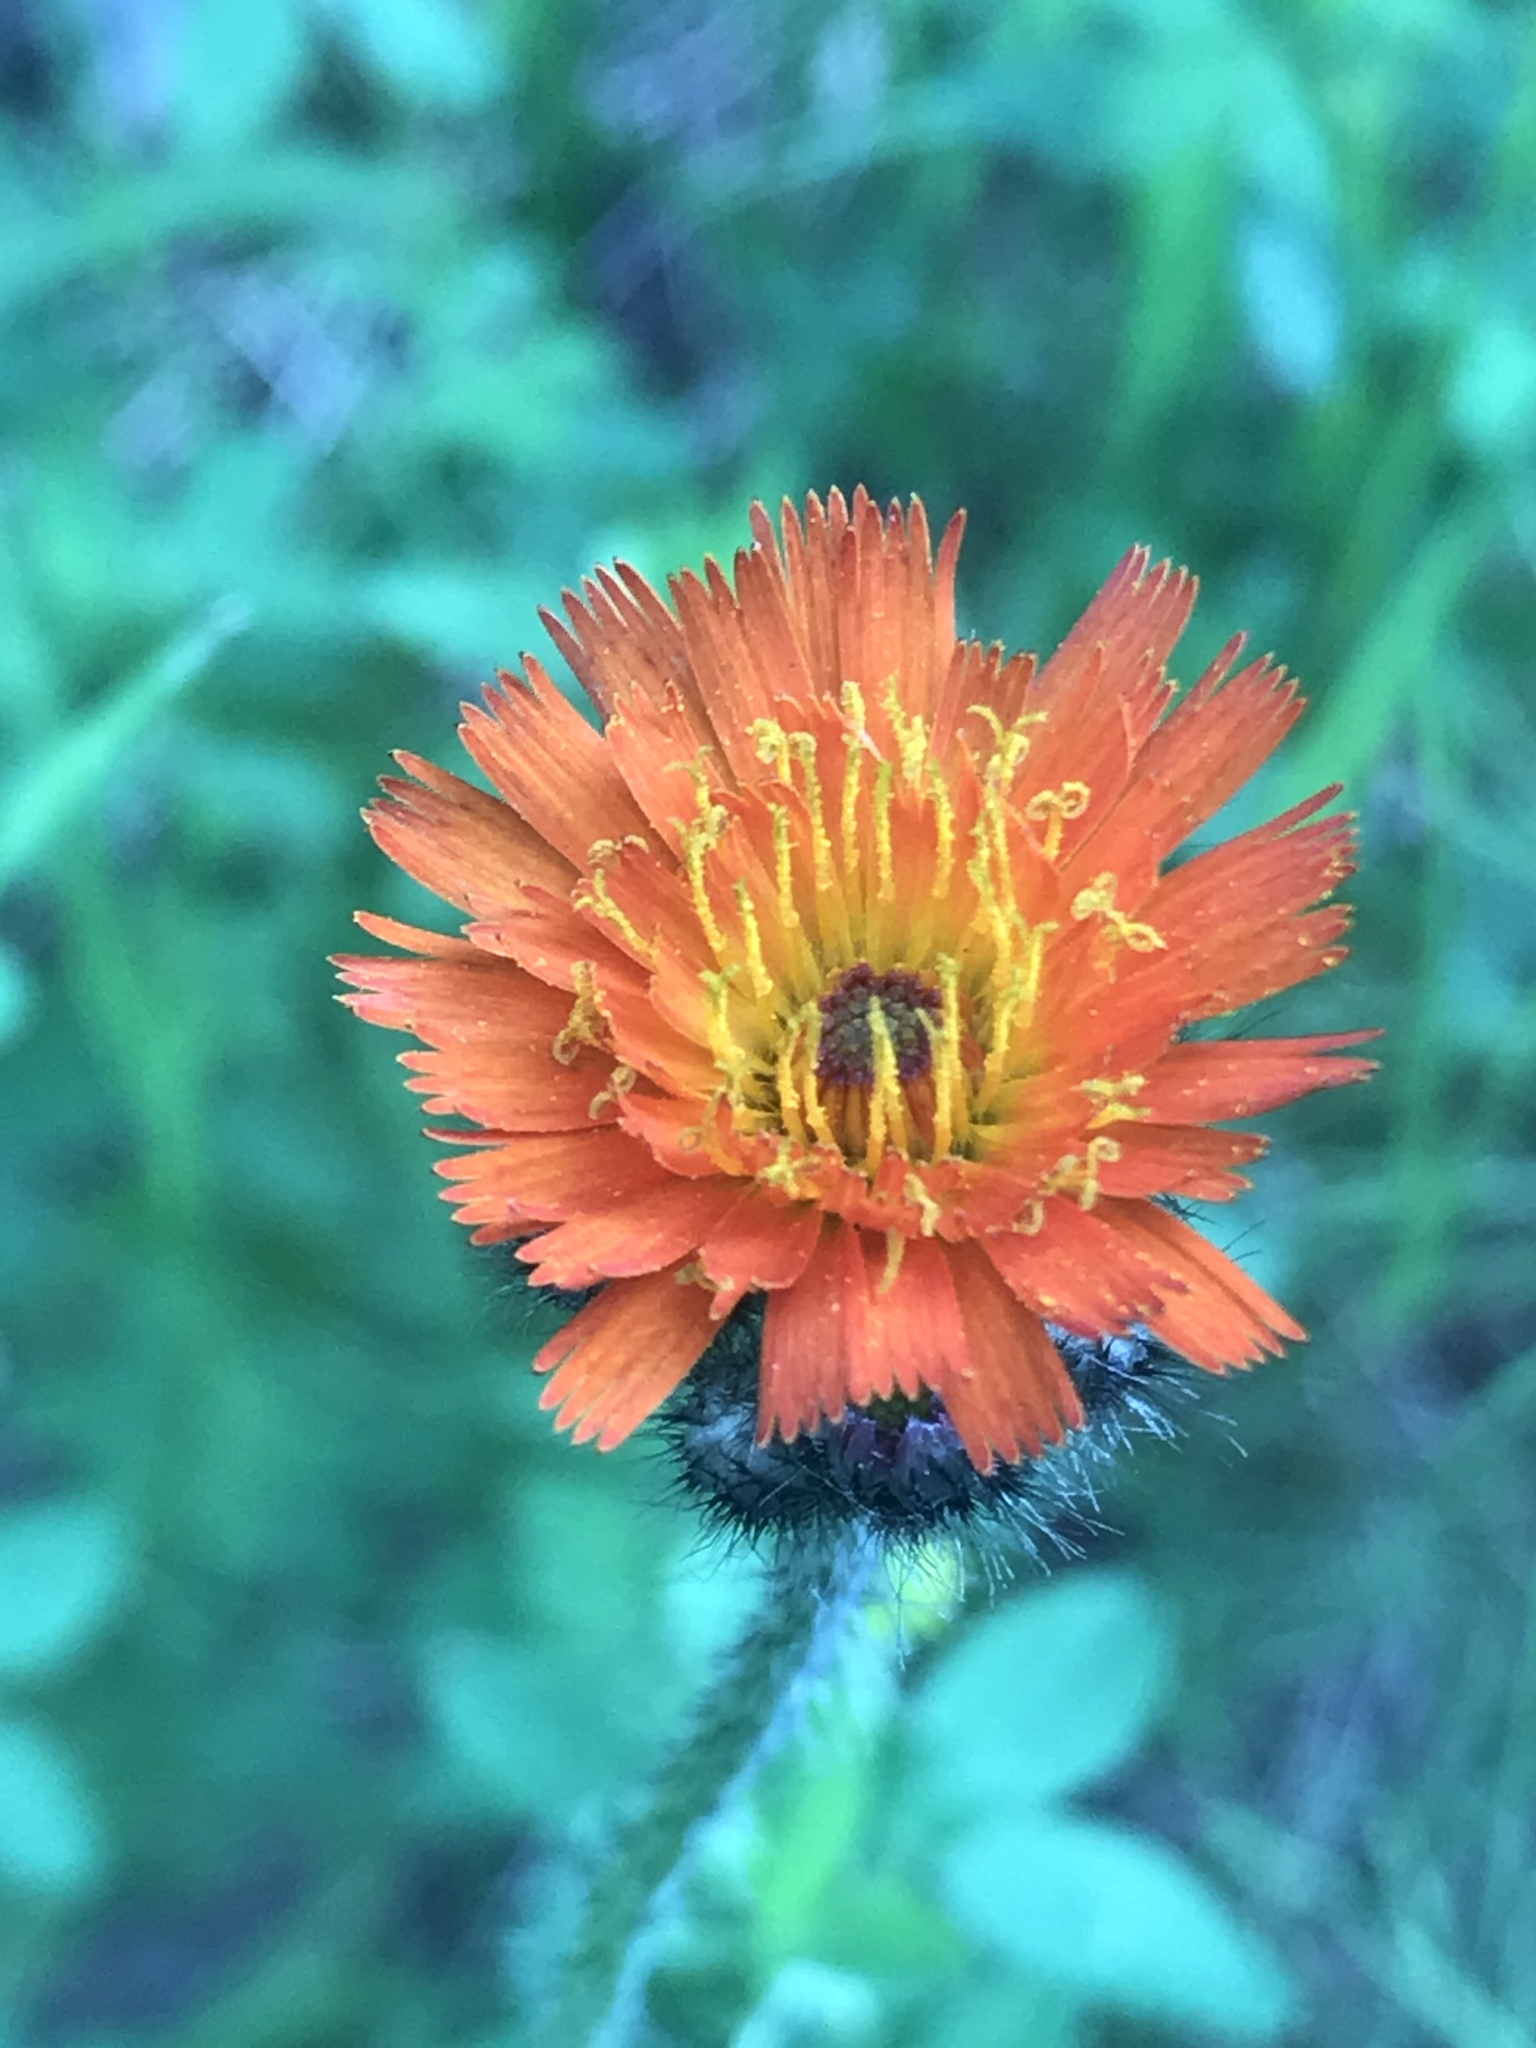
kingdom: Plantae
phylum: Tracheophyta
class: Magnoliopsida
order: Asterales
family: Asteraceae
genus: Pilosella
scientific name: Pilosella aurantiaca
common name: Fox-and-cubs
